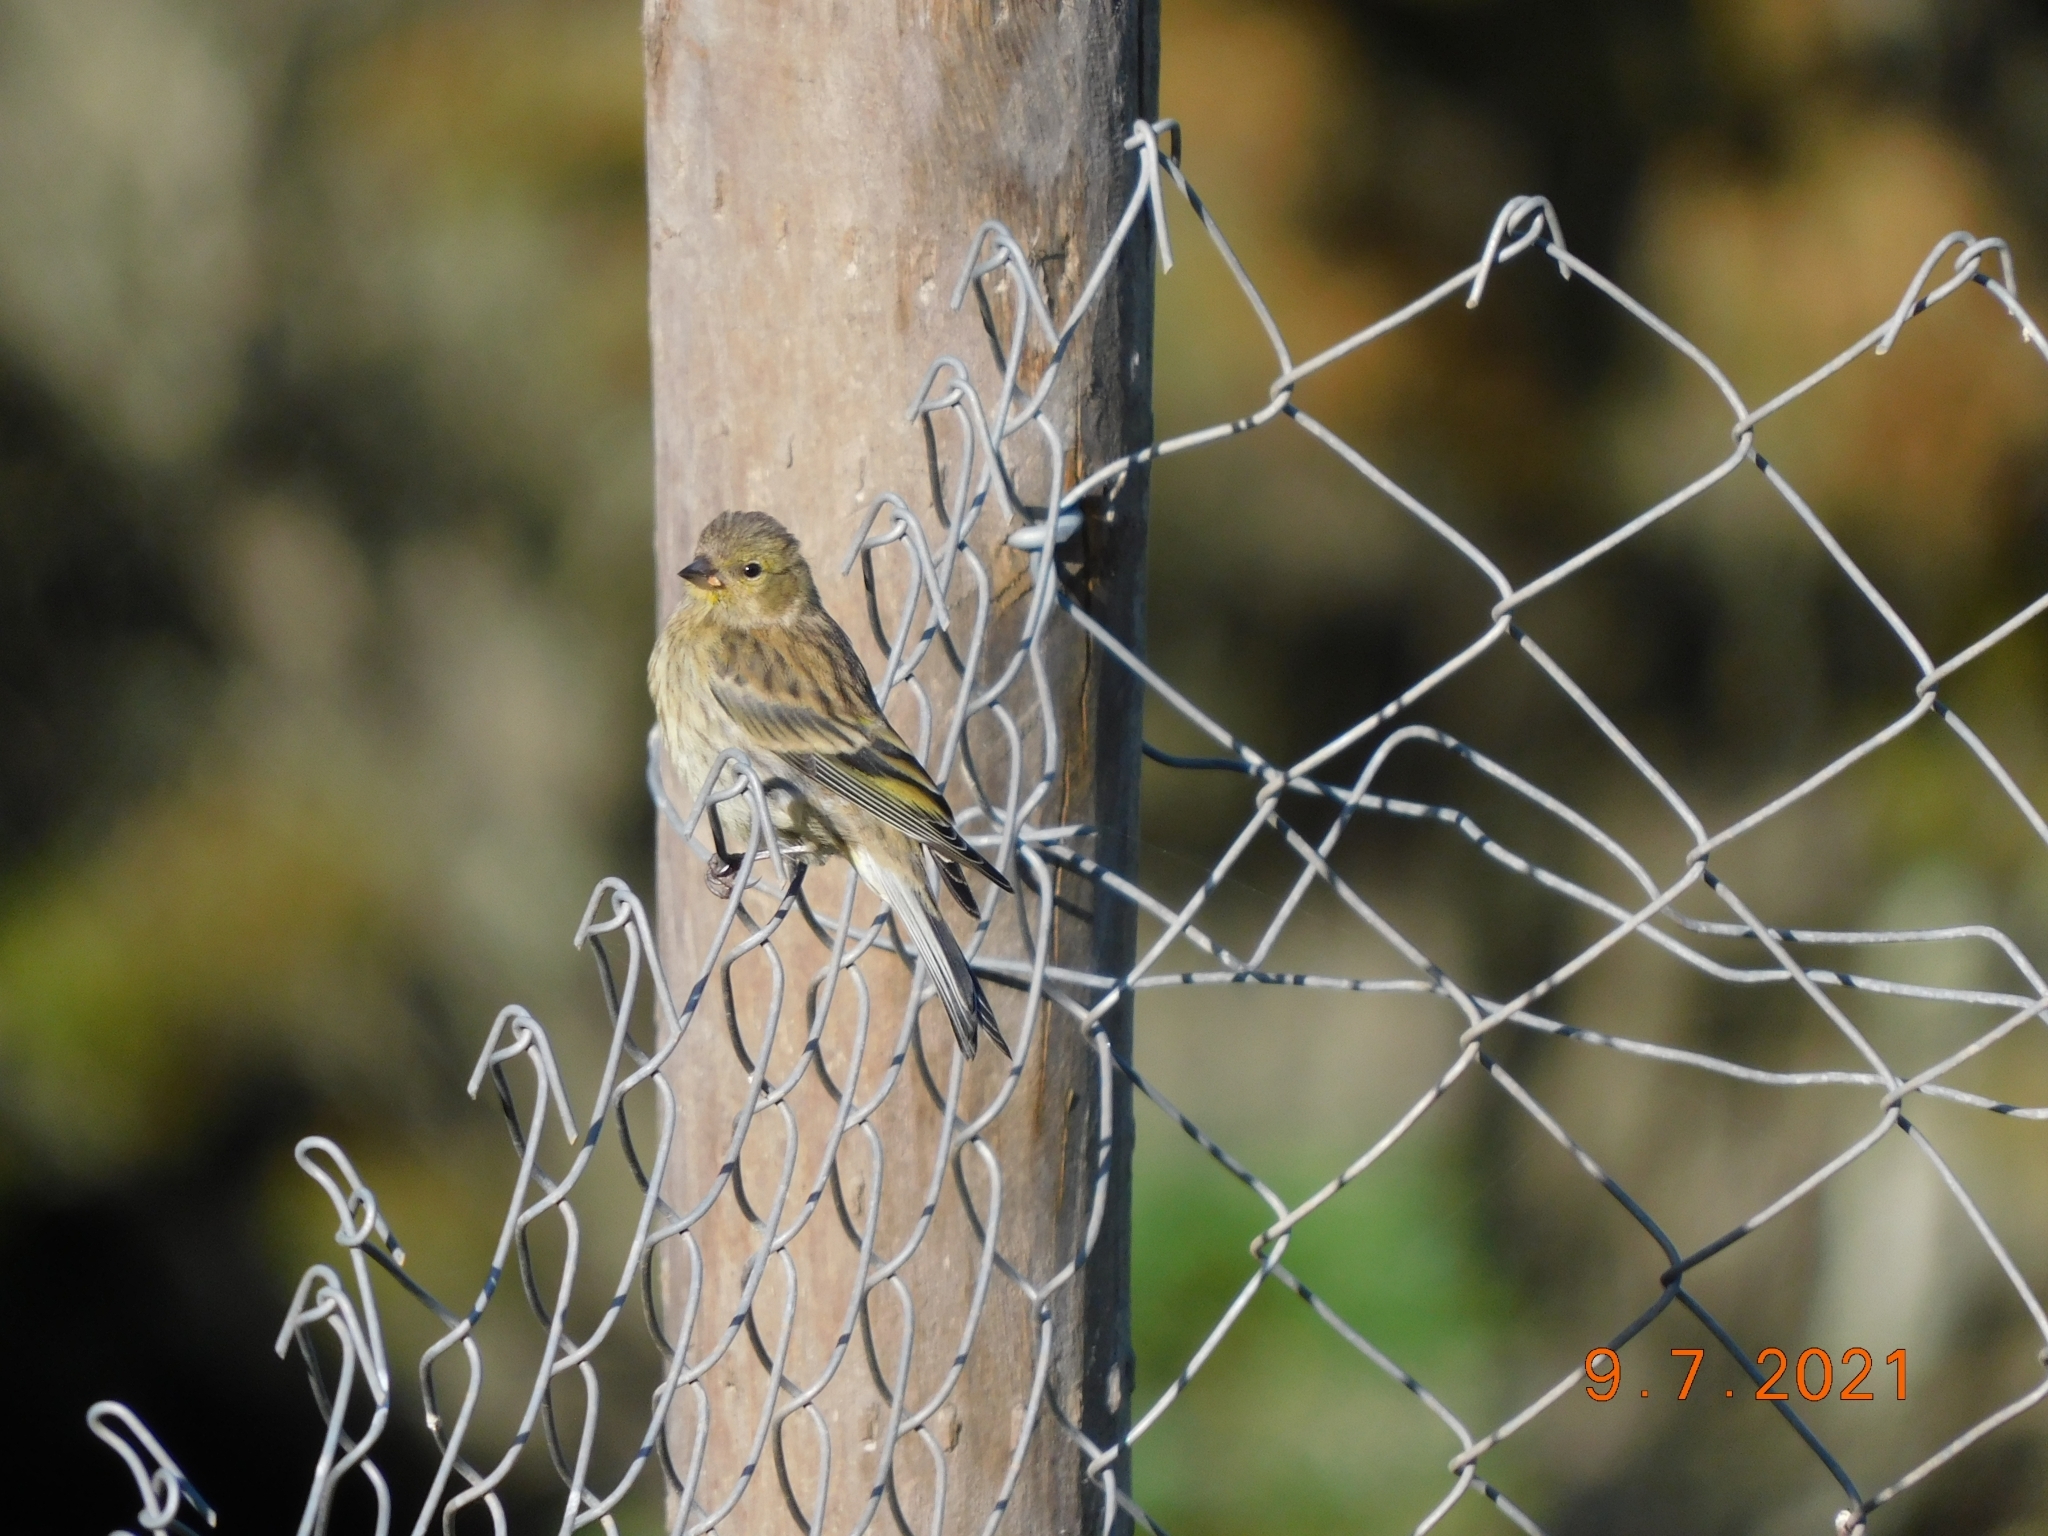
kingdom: Animalia
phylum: Chordata
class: Aves
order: Passeriformes
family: Fringillidae
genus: Carduelis
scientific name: Carduelis corsicana
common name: Corsican finch
